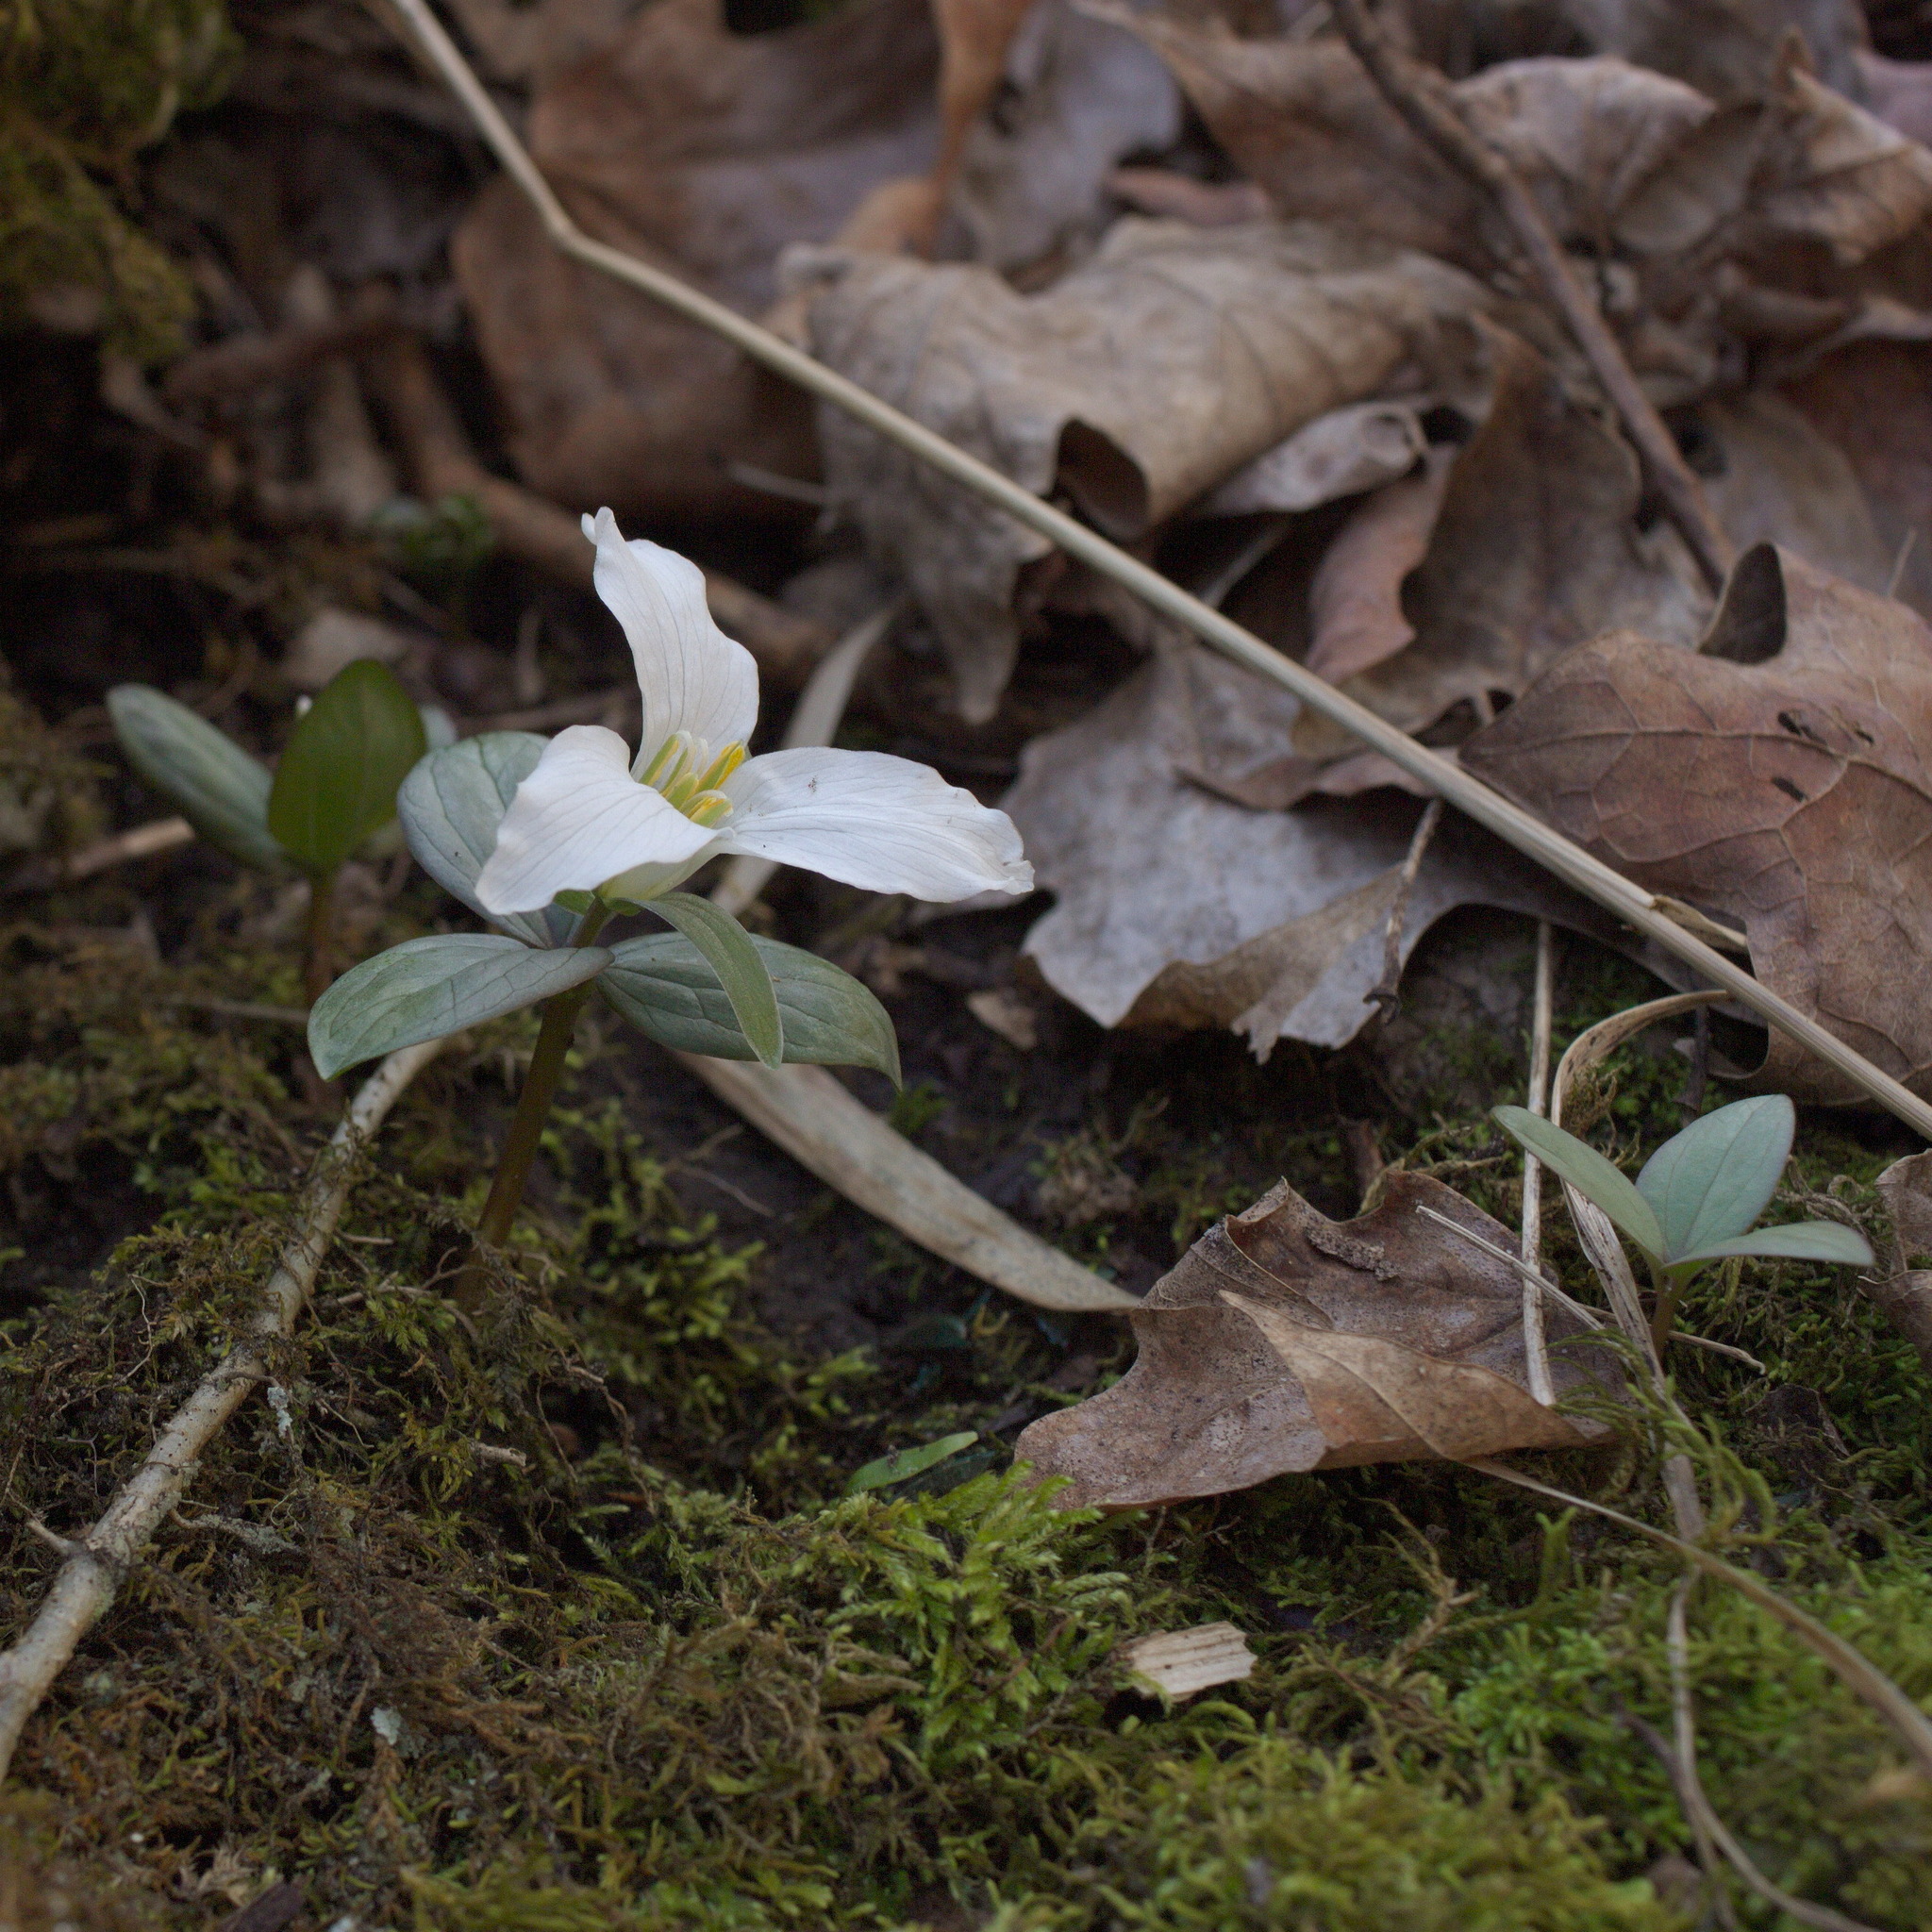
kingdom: Plantae
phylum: Tracheophyta
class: Liliopsida
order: Liliales
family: Melanthiaceae
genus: Trillium
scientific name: Trillium nivale
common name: Dwarf white trillium
